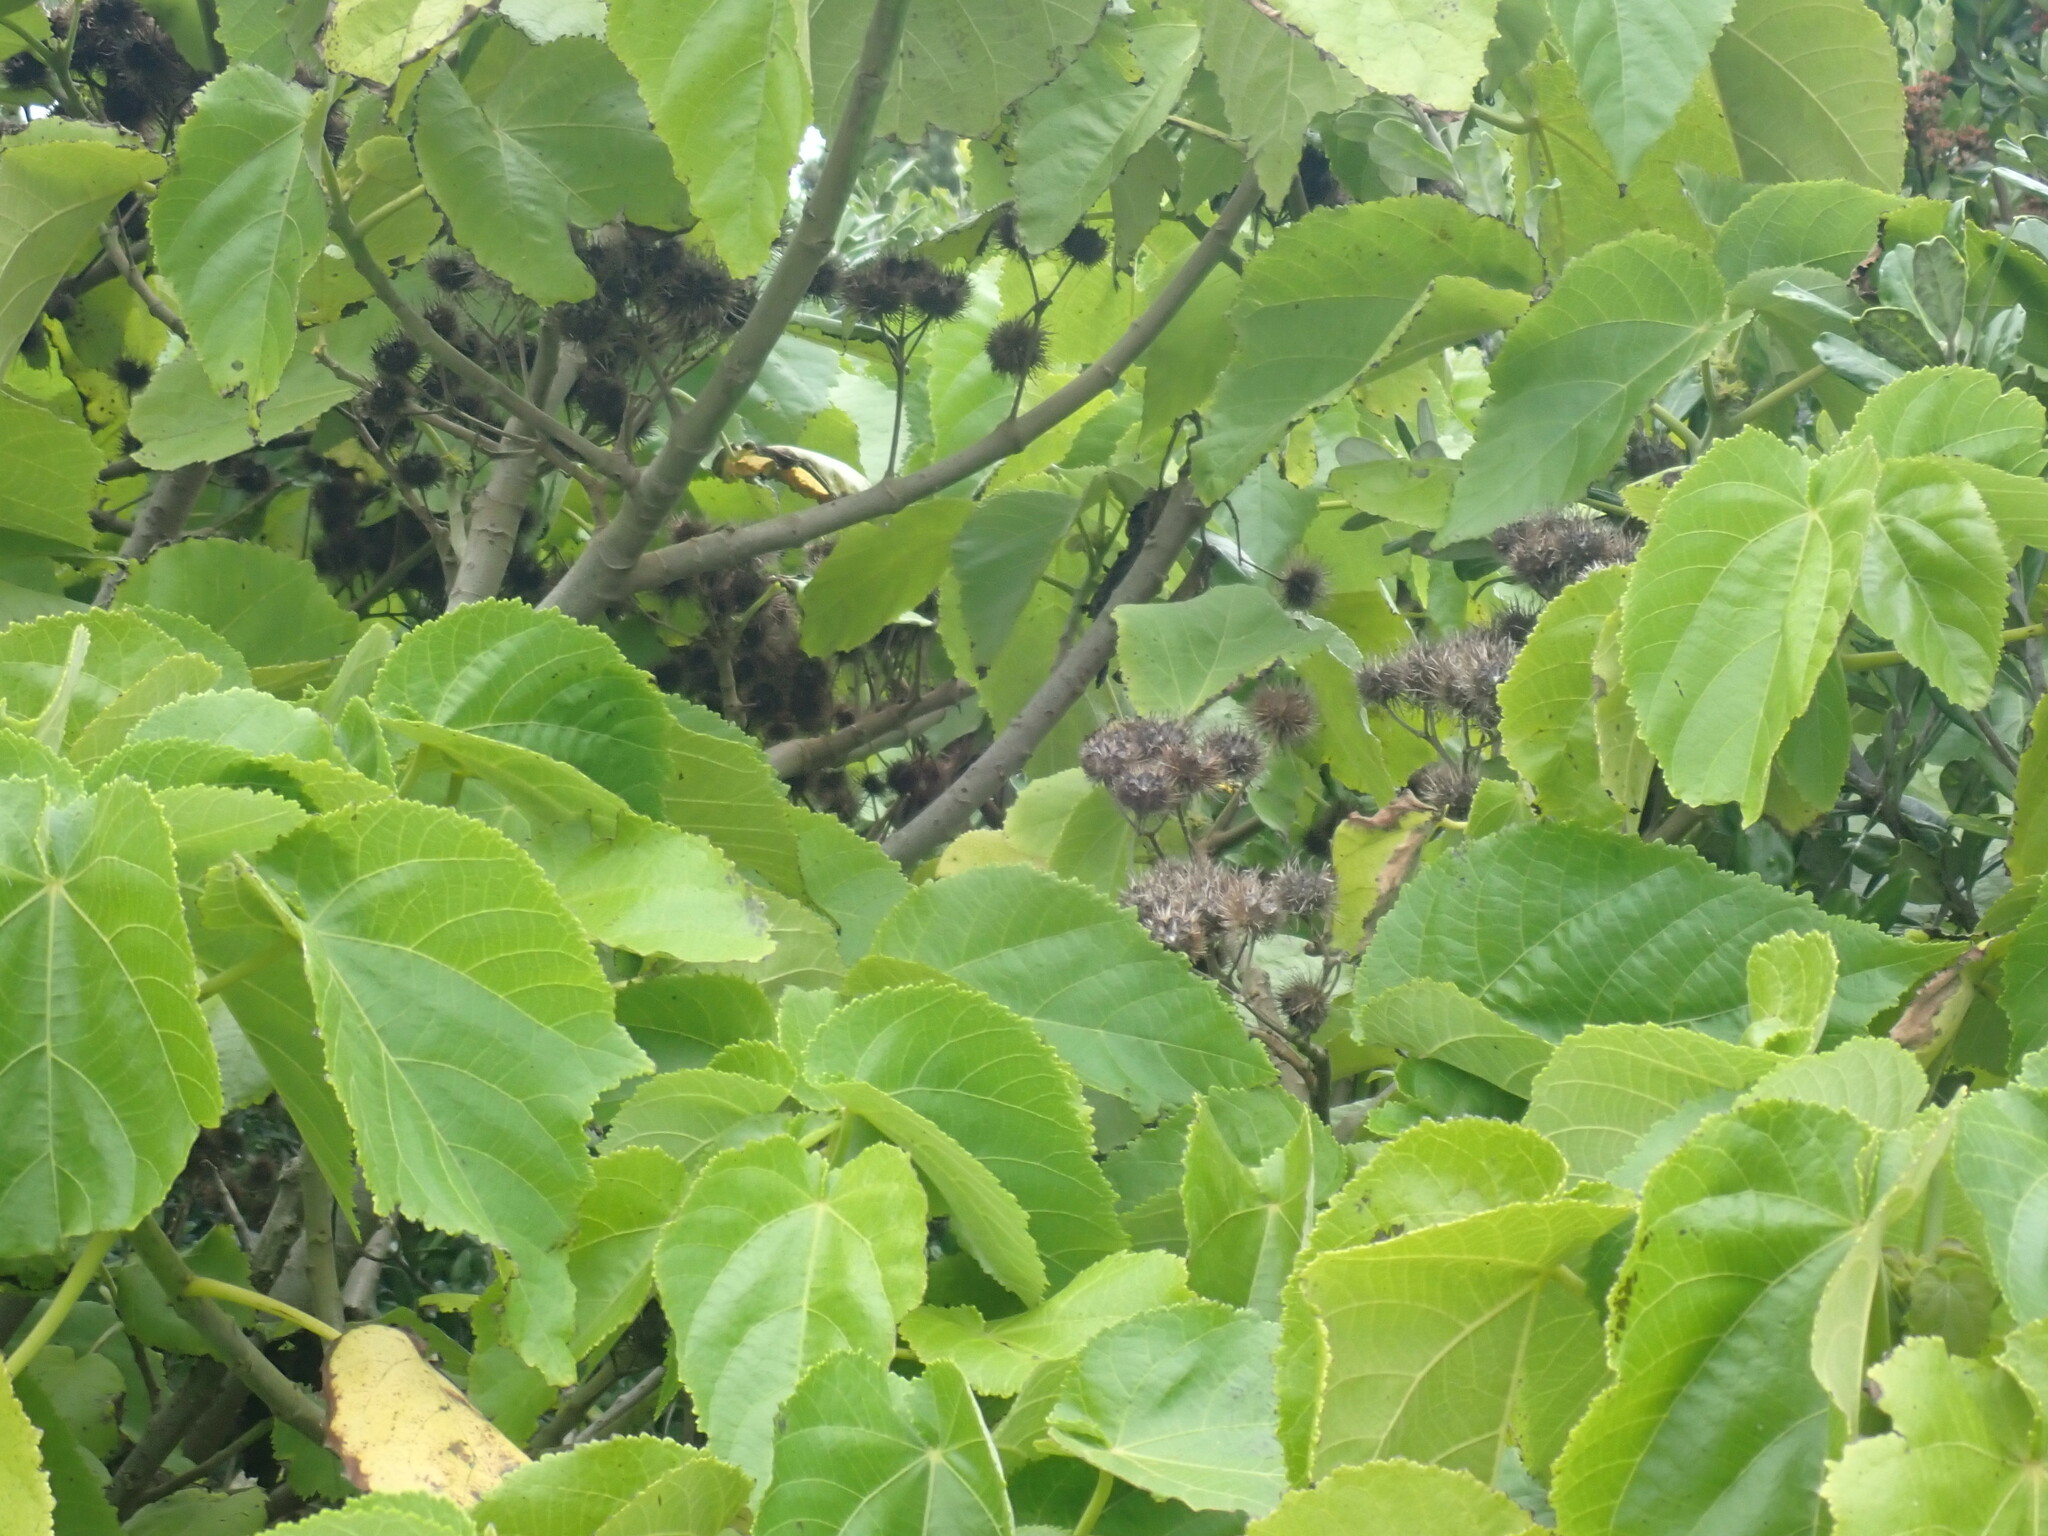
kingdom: Plantae
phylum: Tracheophyta
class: Magnoliopsida
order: Malvales
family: Malvaceae
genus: Entelea
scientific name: Entelea arborescens
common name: New zealand-mulberry
